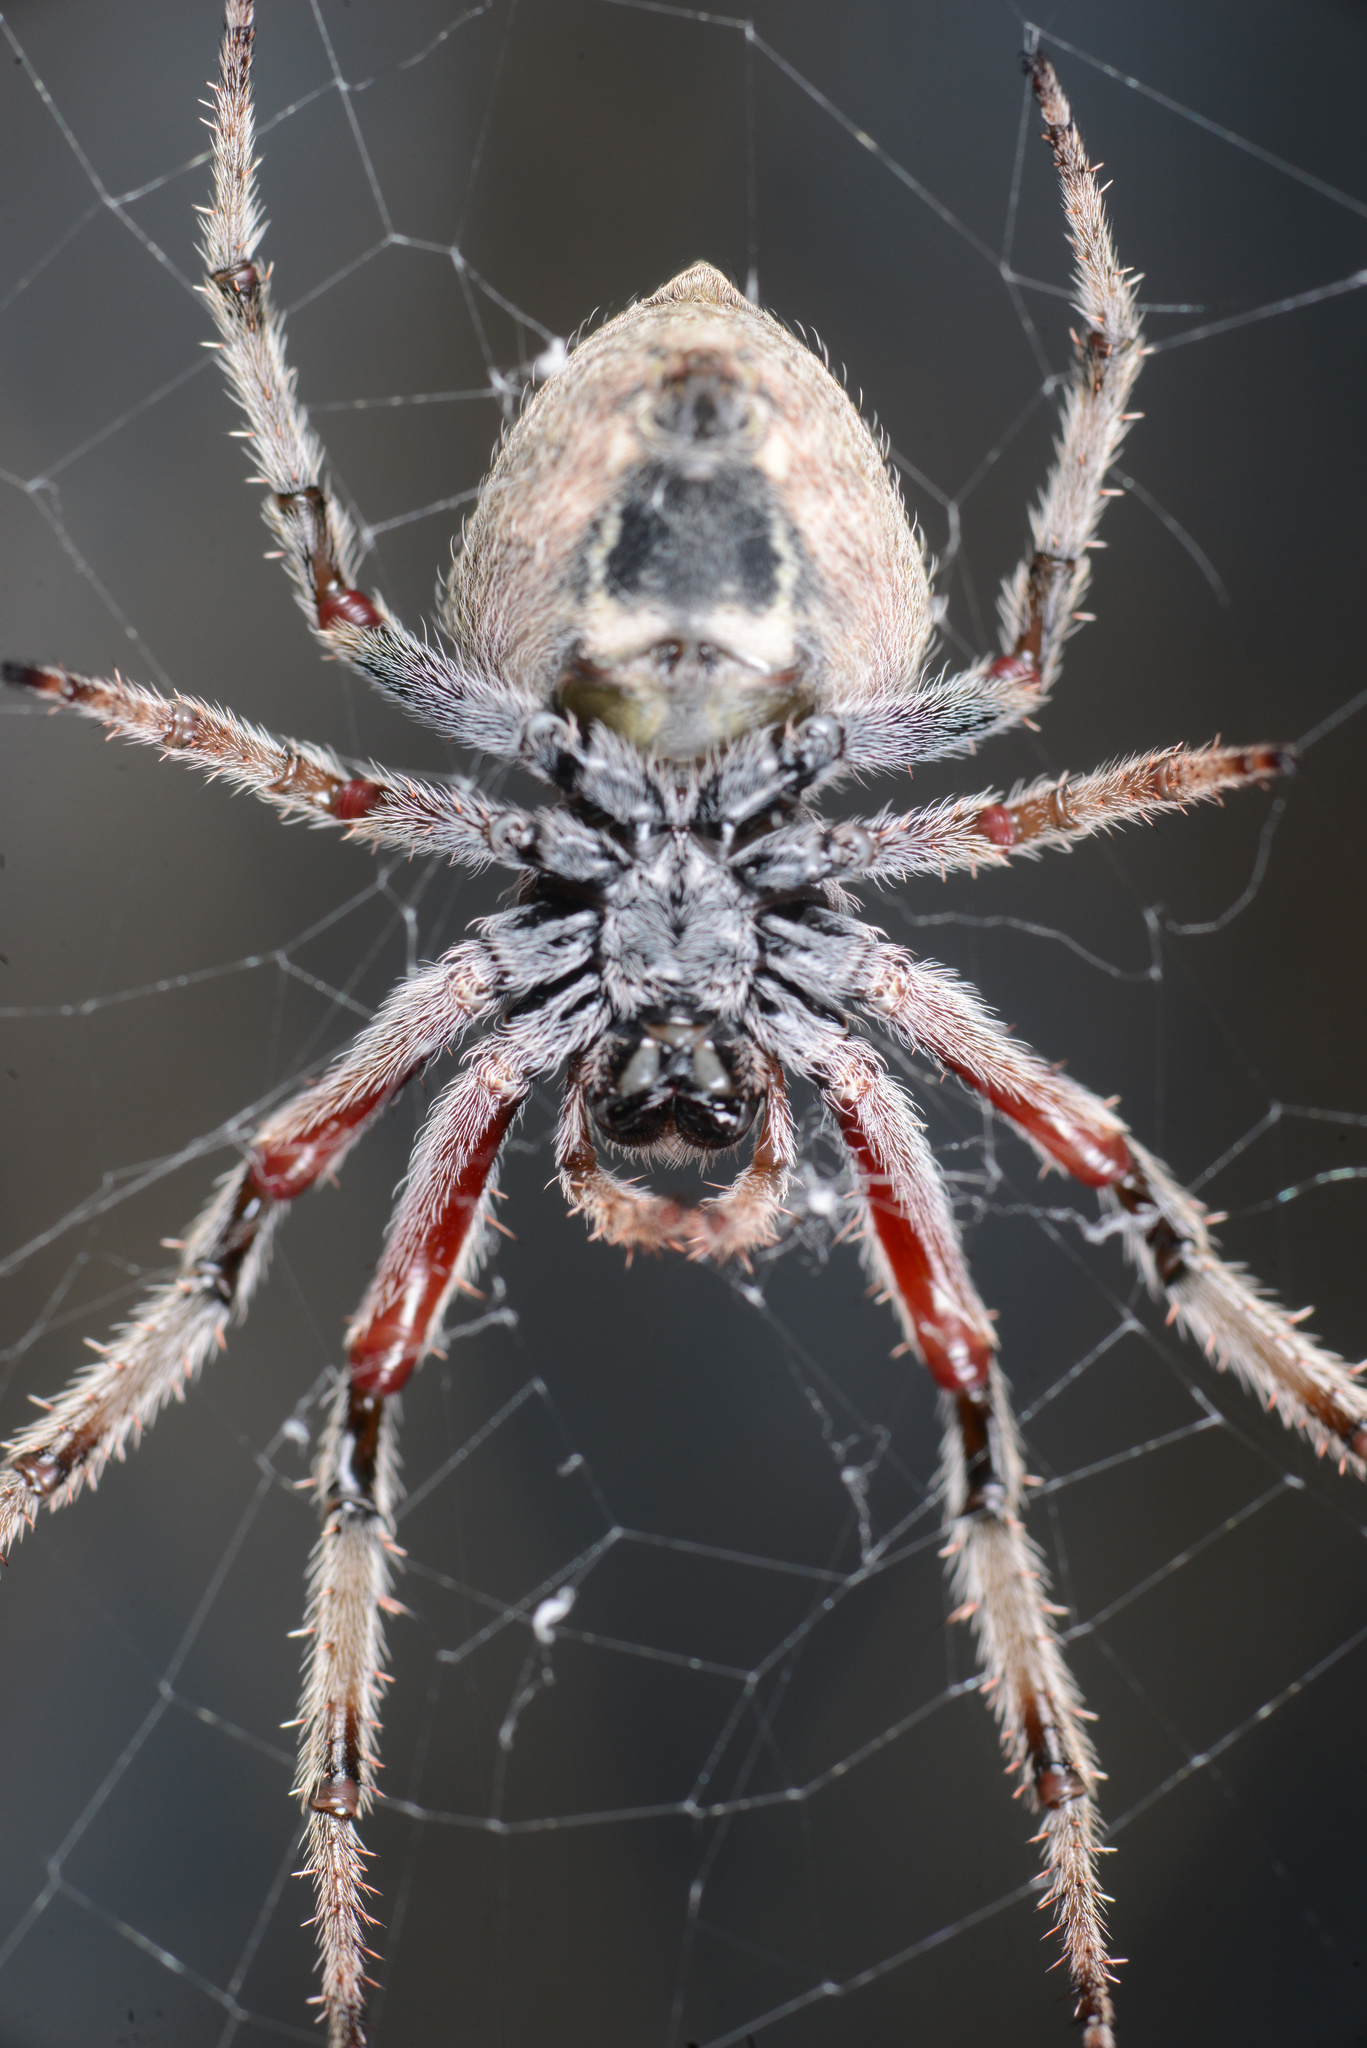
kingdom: Animalia
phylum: Arthropoda
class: Arachnida
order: Araneae
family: Araneidae
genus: Eriophora
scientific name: Eriophora pustulosa
